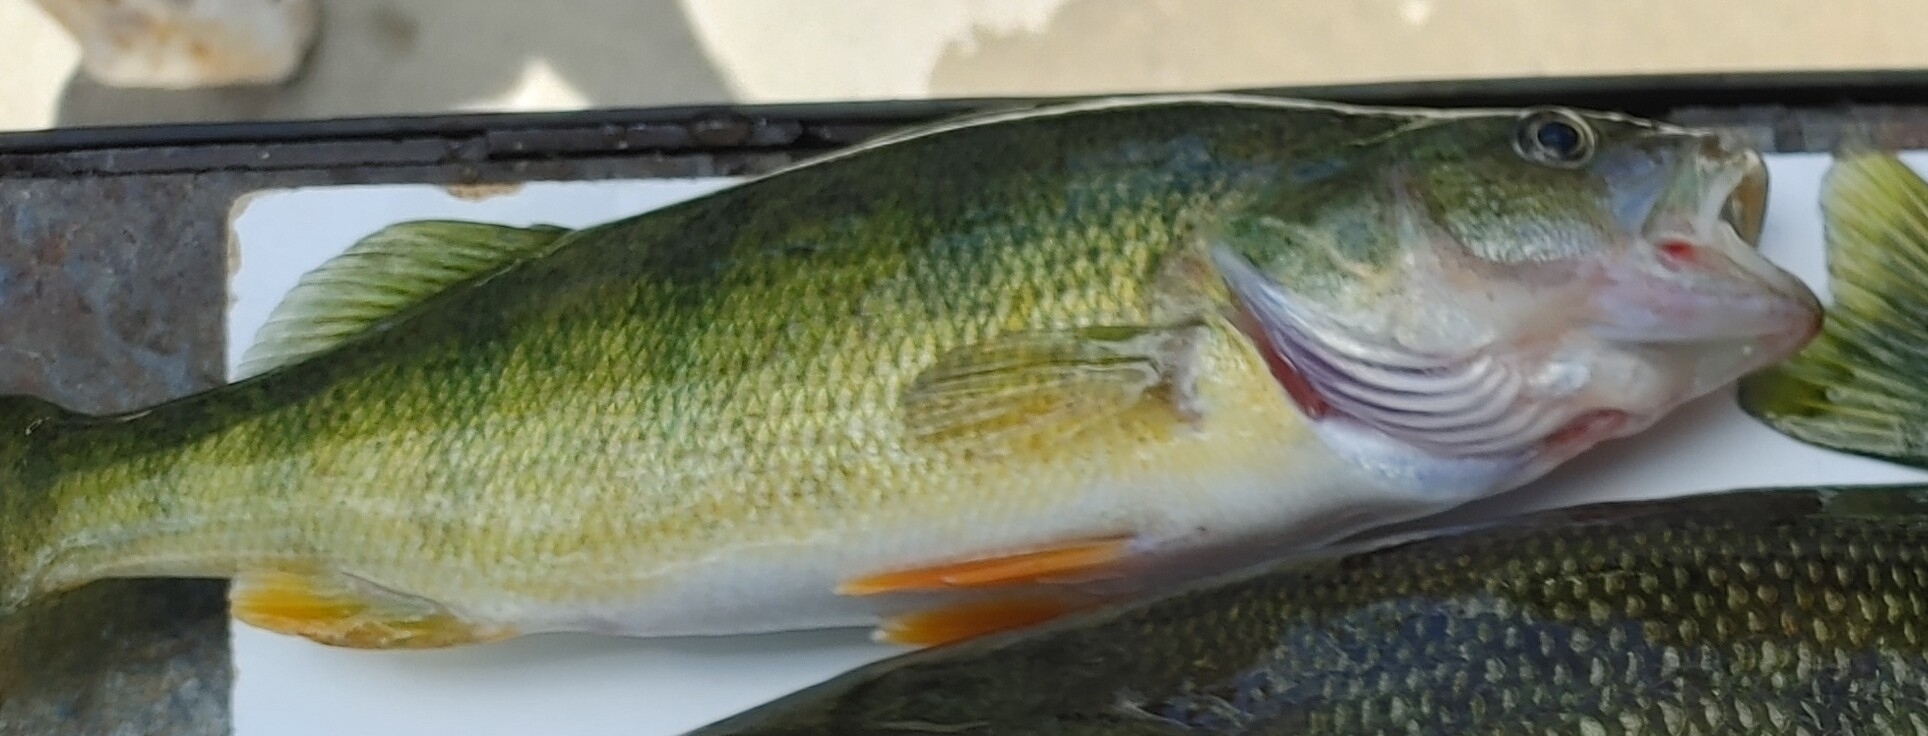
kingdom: Animalia
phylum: Chordata
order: Perciformes
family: Percidae
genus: Perca
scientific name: Perca flavescens
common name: Yellow perch
